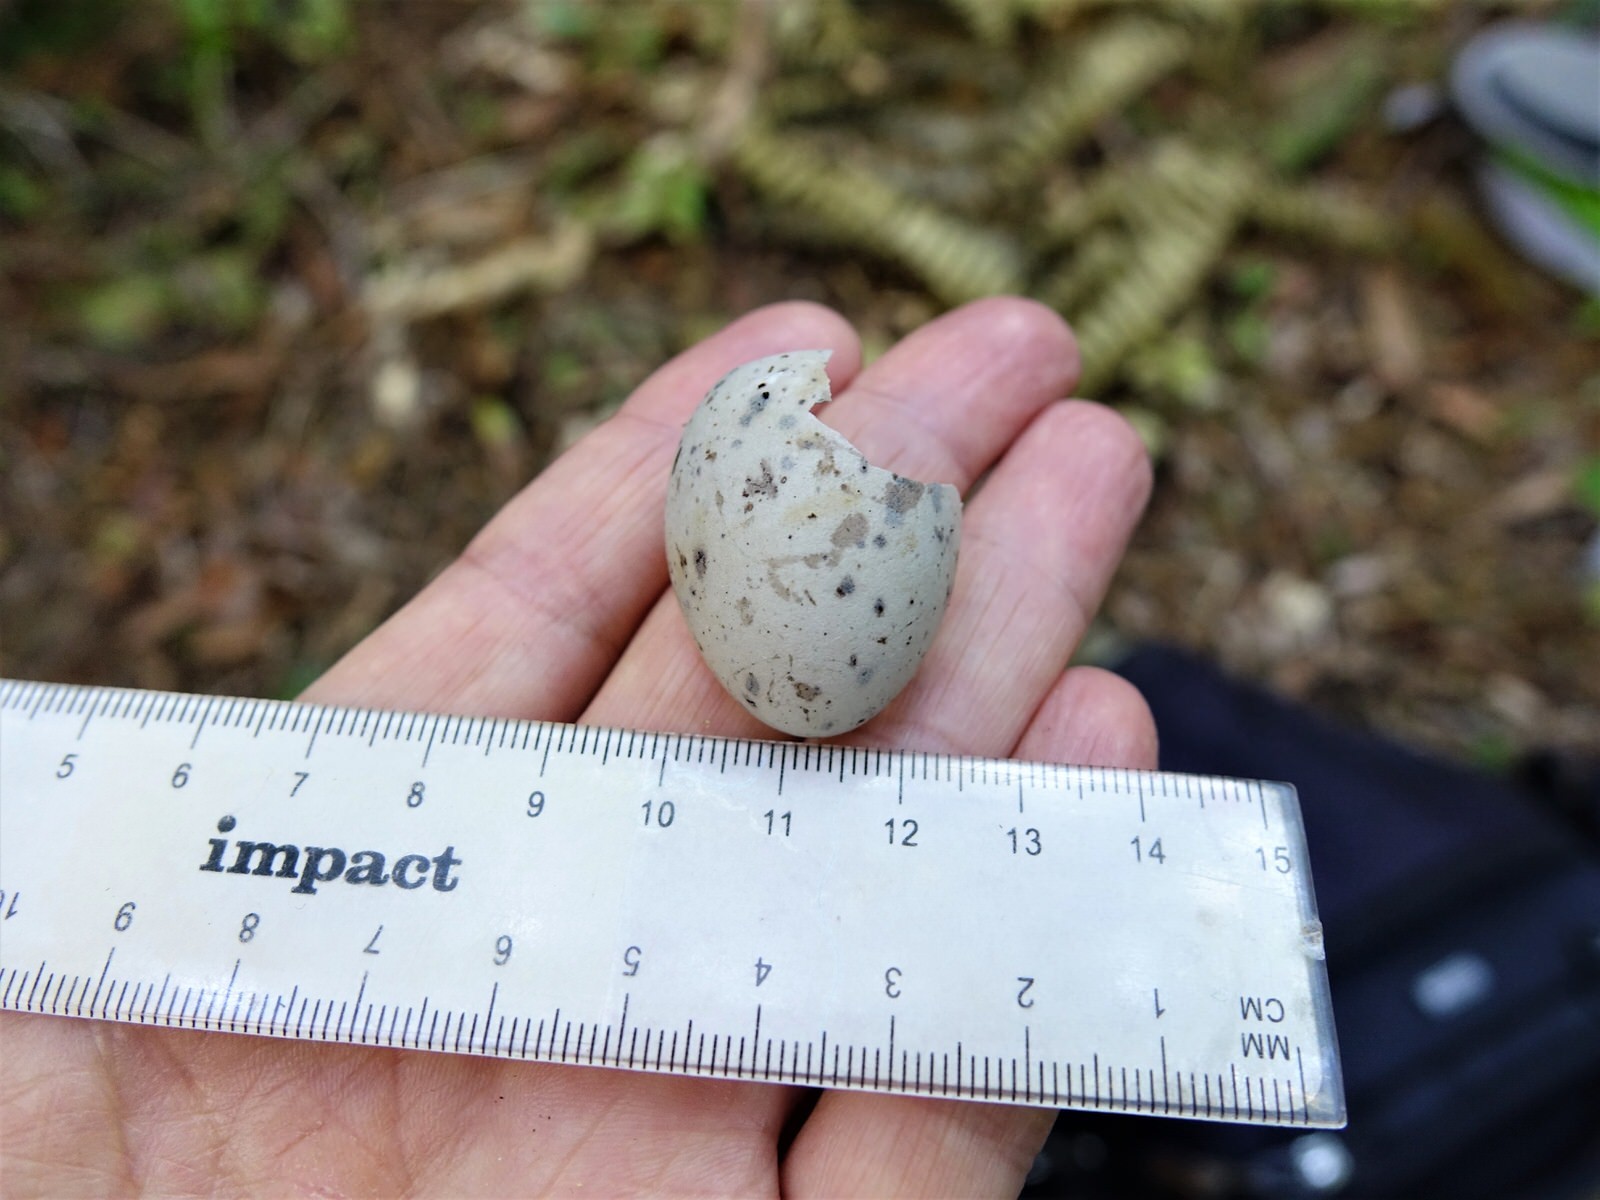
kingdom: Animalia
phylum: Chordata
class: Aves
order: Passeriformes
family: Callaeatidae
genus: Callaeas
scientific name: Callaeas cinereus
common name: South island kokako
